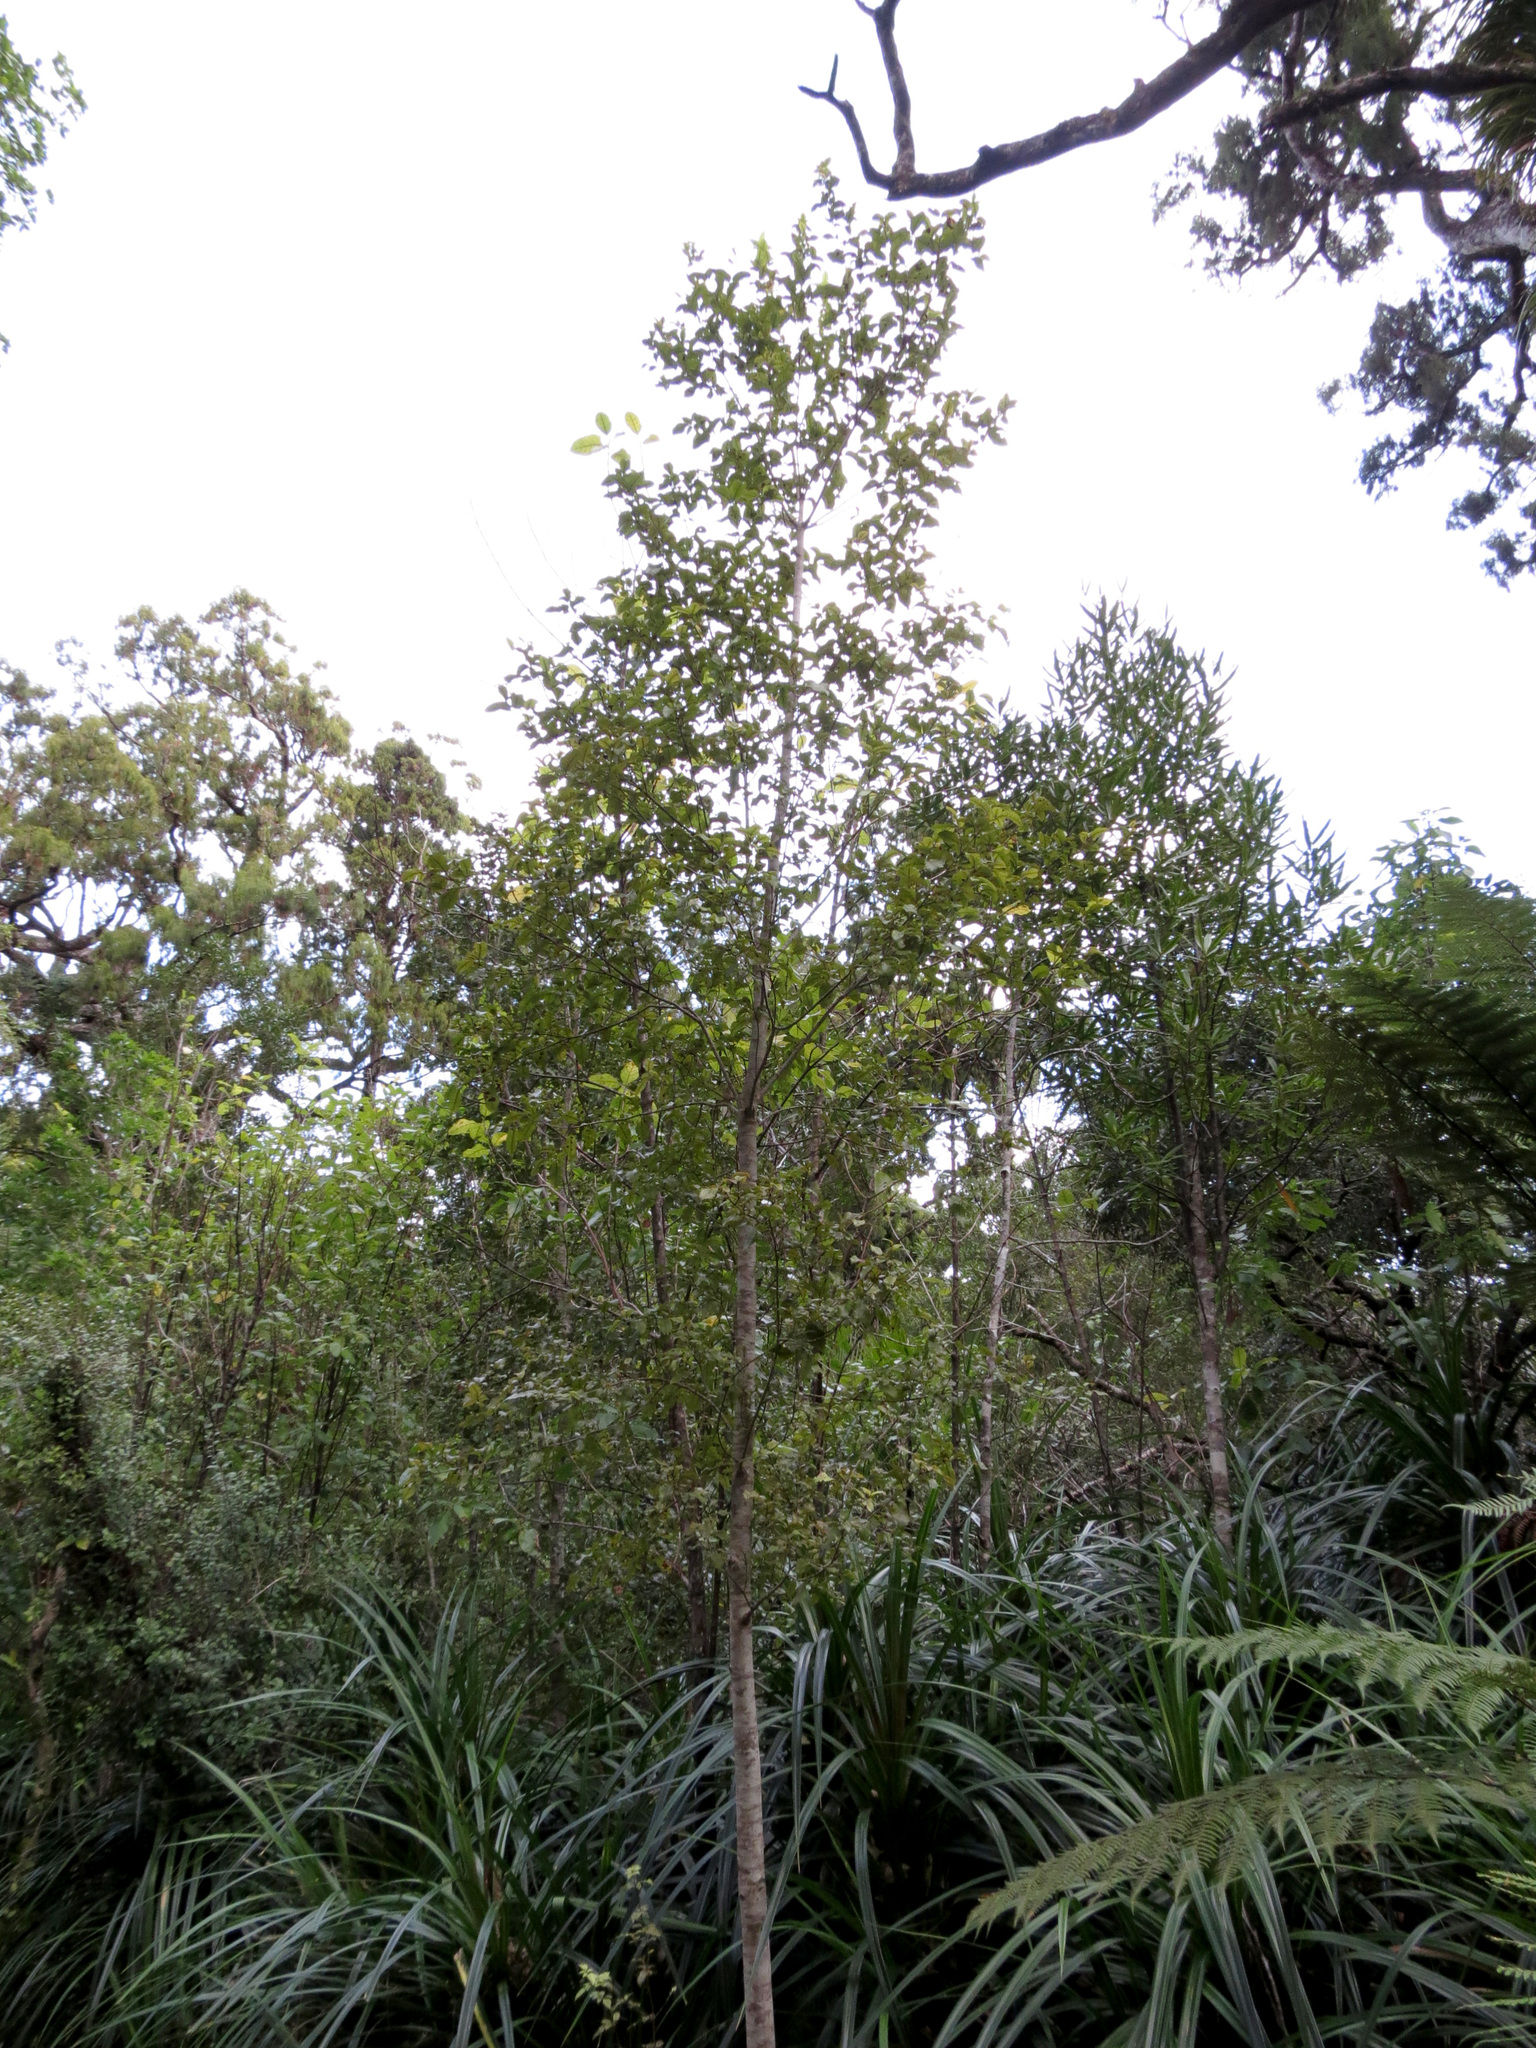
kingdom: Plantae
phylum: Tracheophyta
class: Magnoliopsida
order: Oxalidales
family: Cunoniaceae
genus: Pterophylla
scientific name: Pterophylla racemosa
